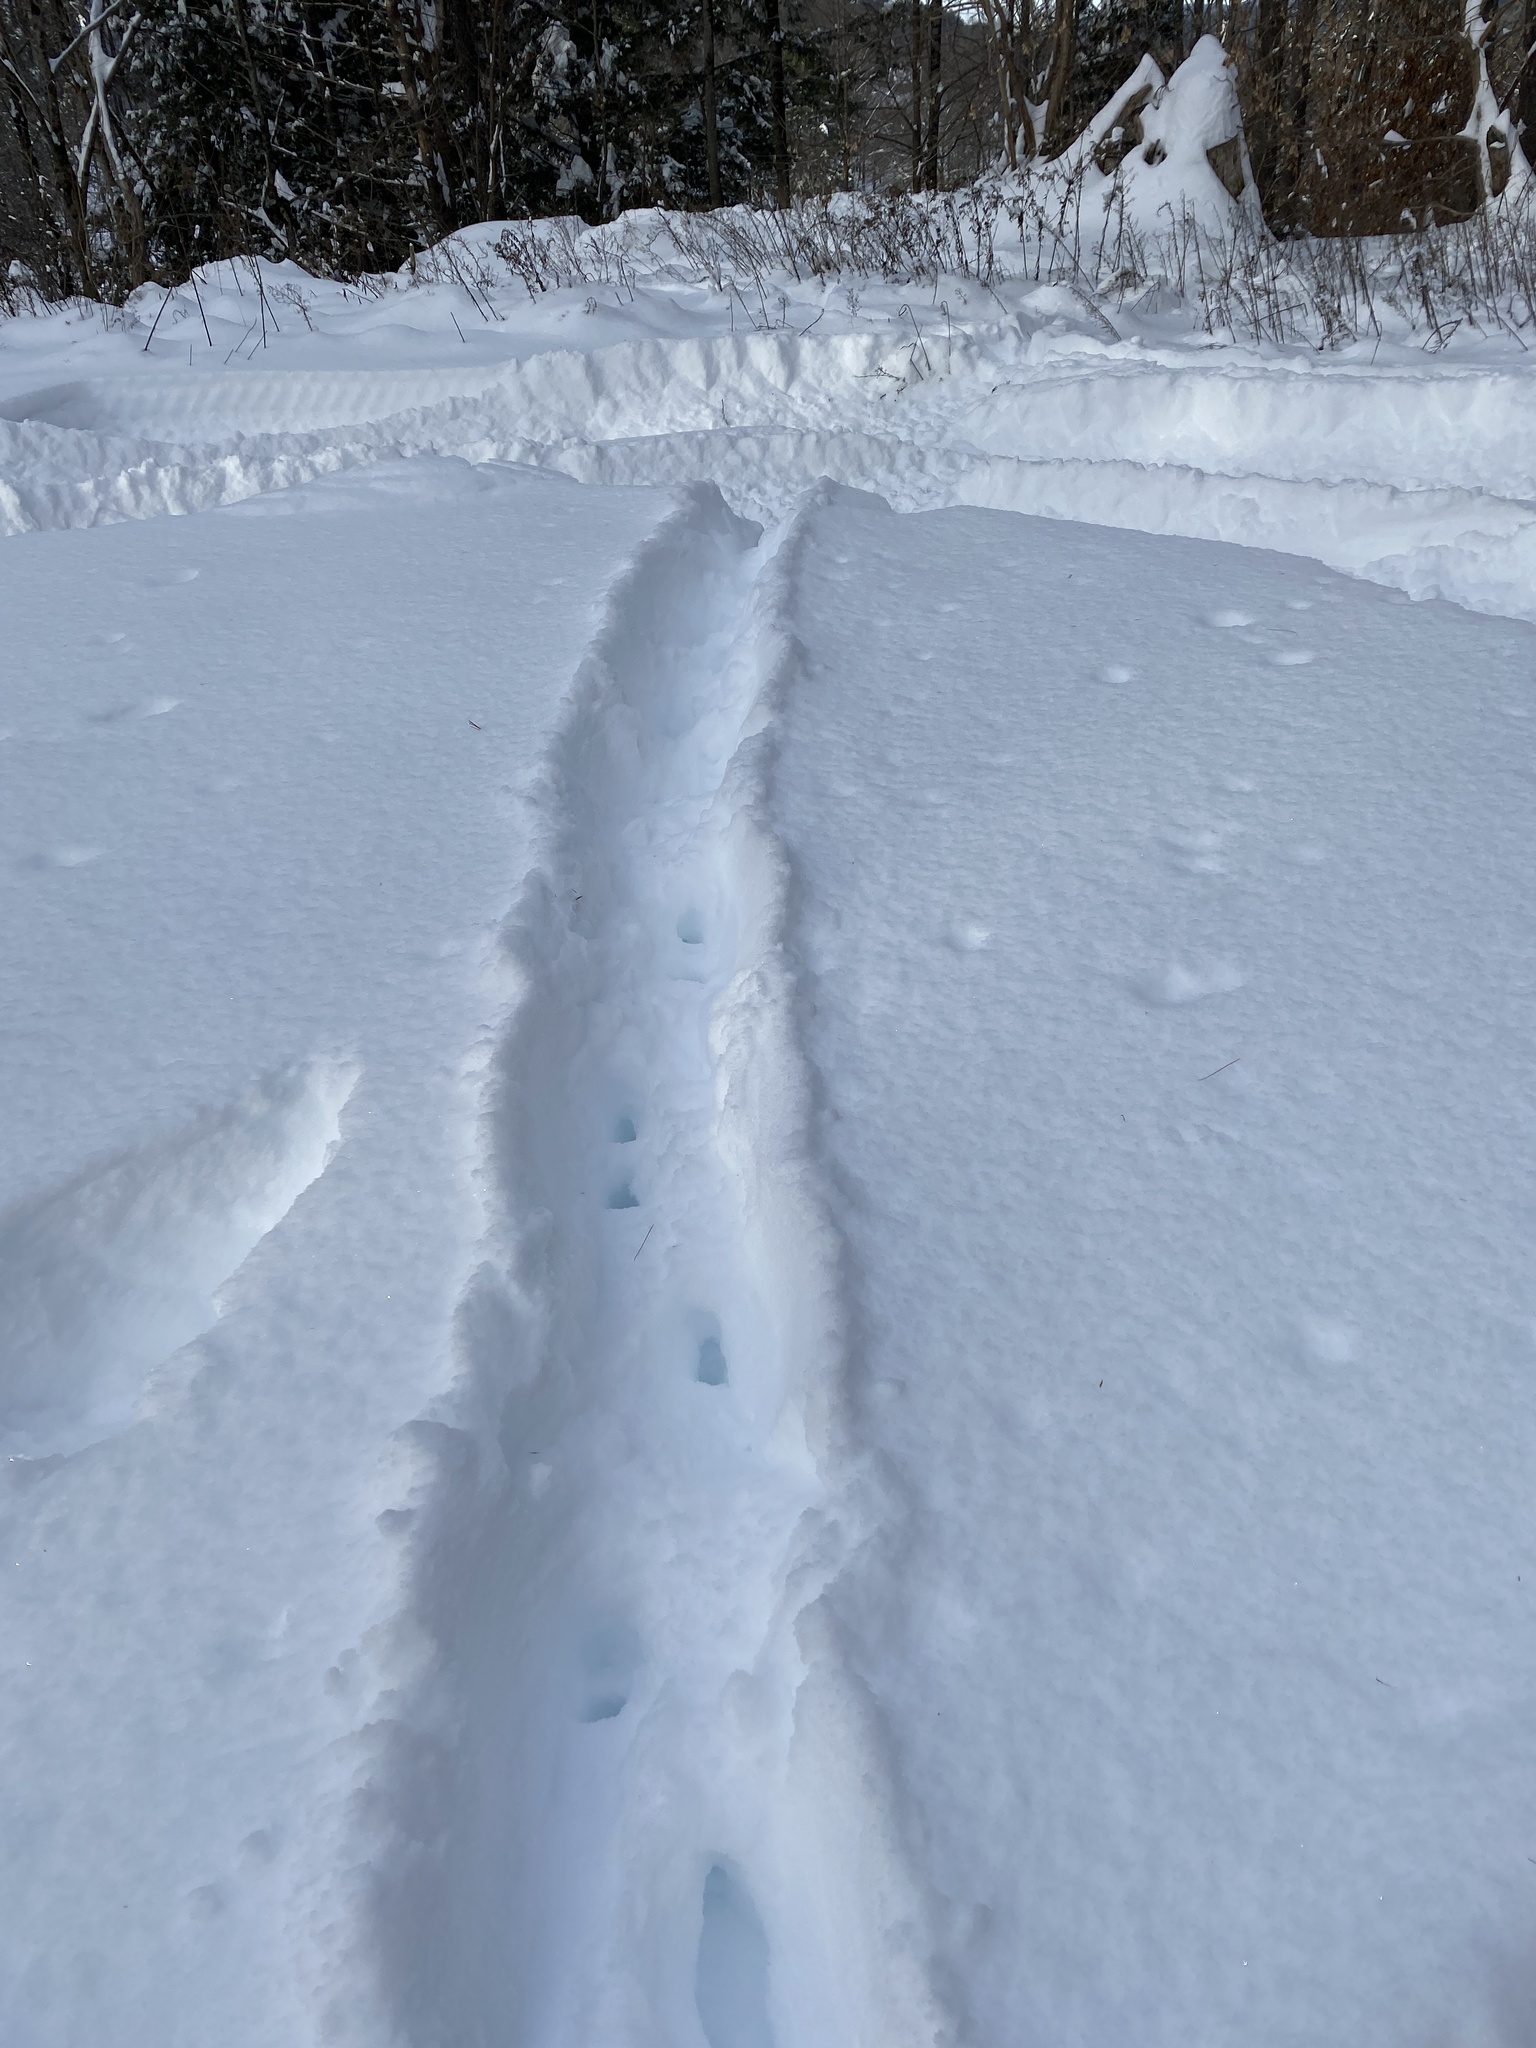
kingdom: Animalia
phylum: Chordata
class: Mammalia
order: Artiodactyla
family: Cervidae
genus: Odocoileus
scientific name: Odocoileus virginianus
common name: White-tailed deer
